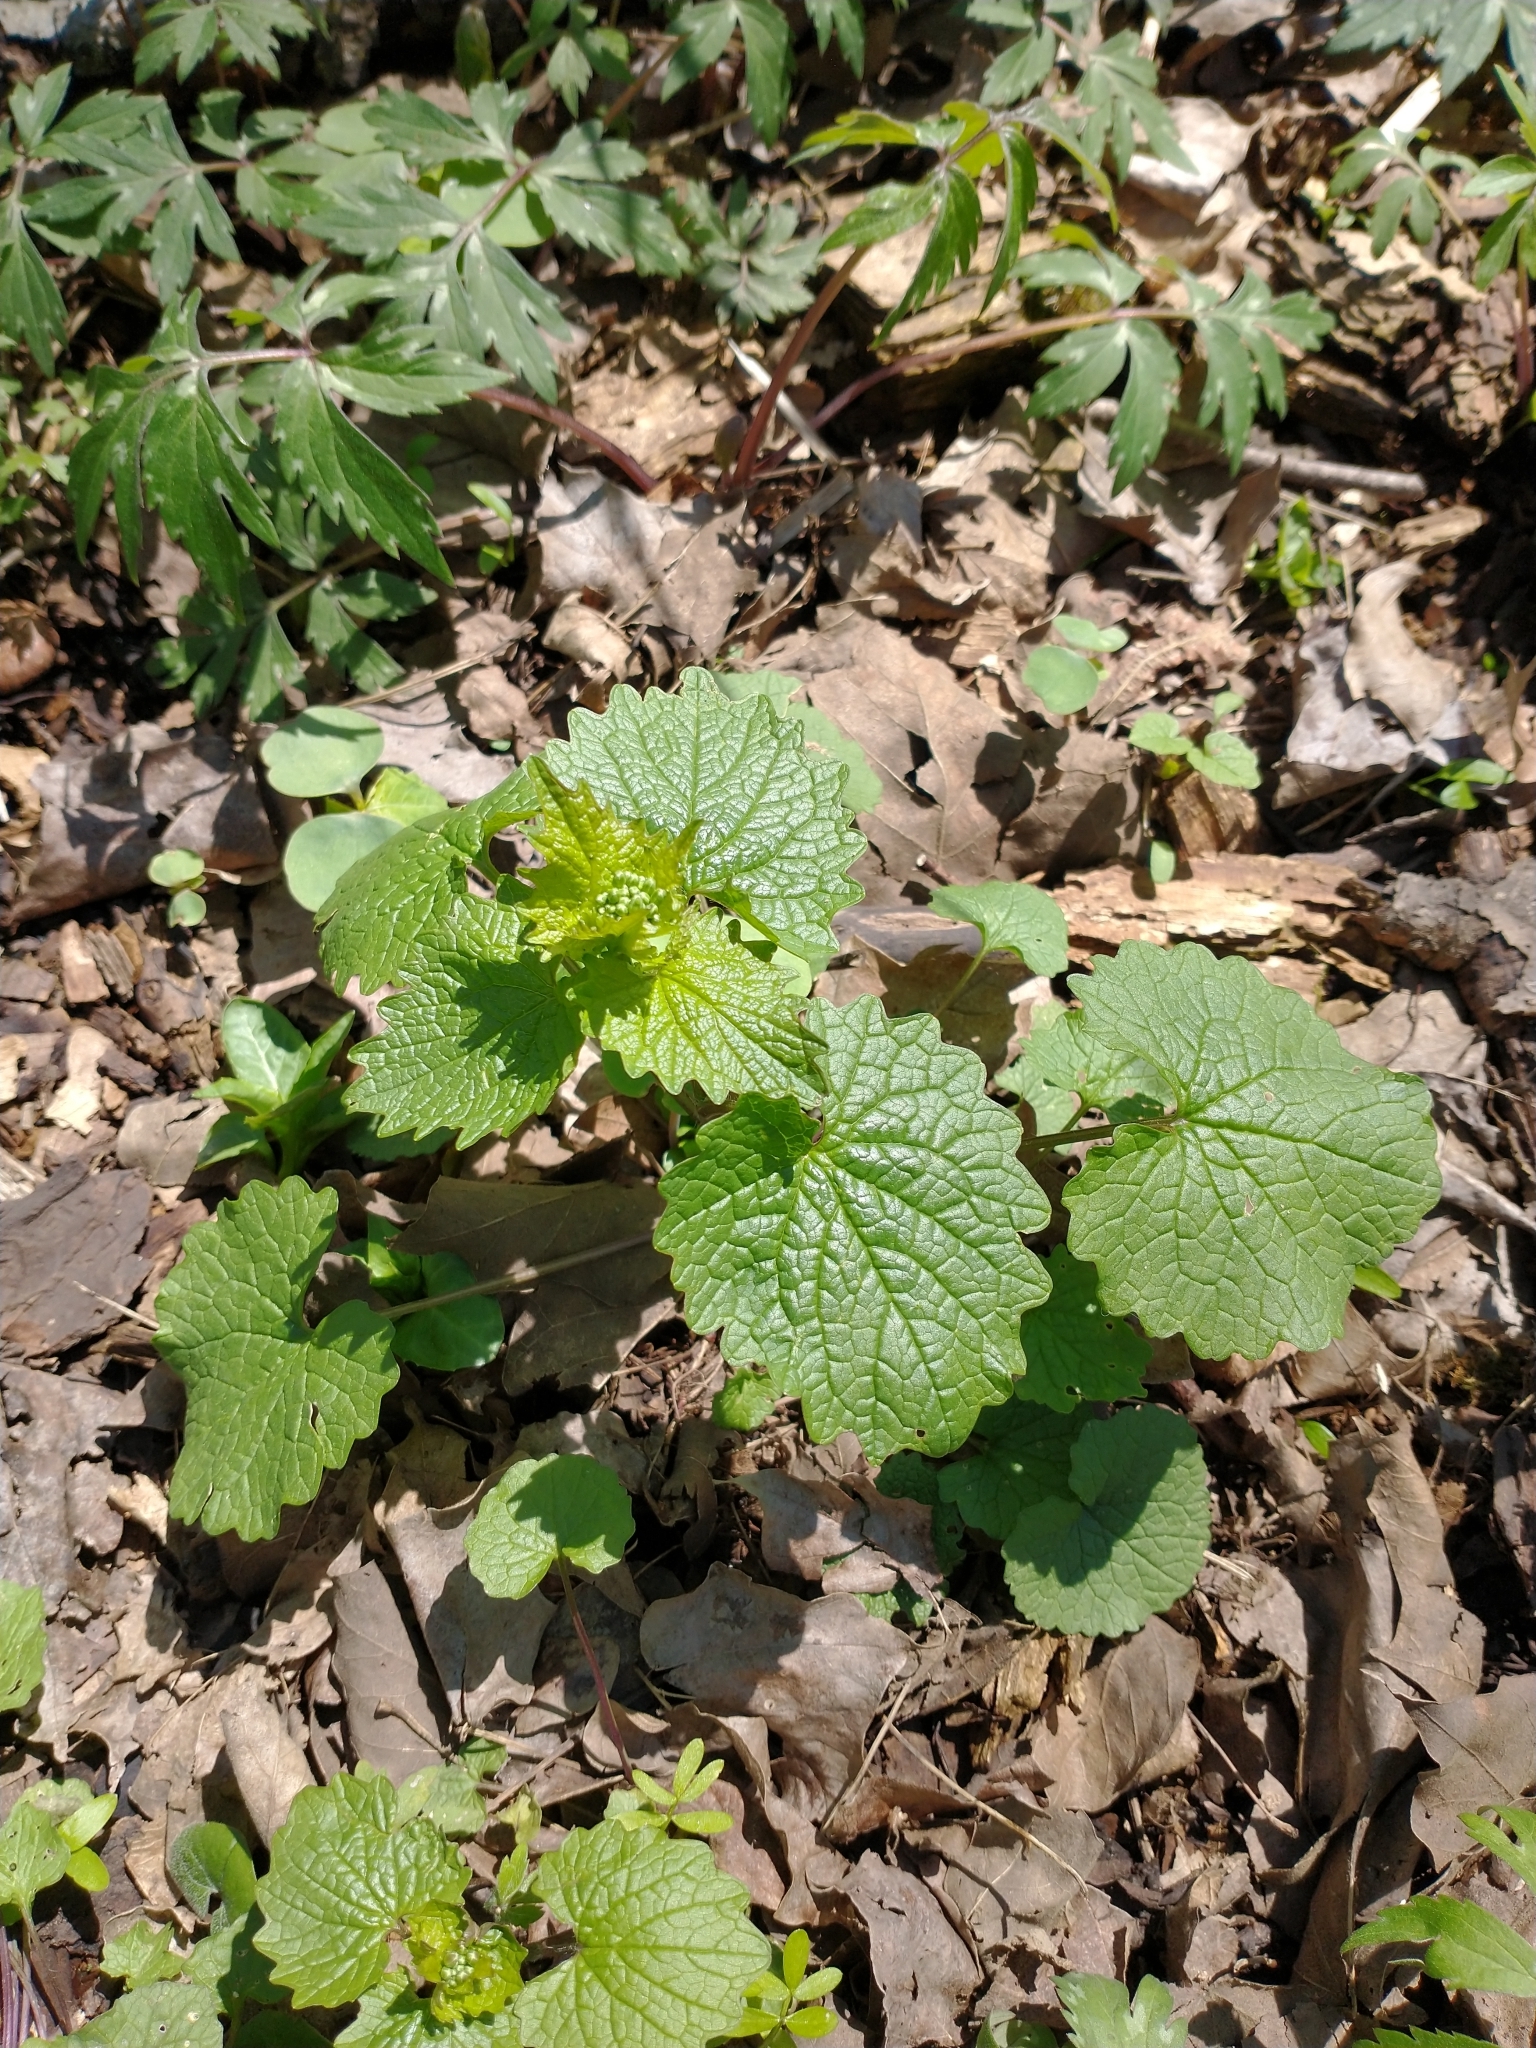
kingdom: Plantae
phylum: Tracheophyta
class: Magnoliopsida
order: Brassicales
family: Brassicaceae
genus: Alliaria
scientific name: Alliaria petiolata
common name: Garlic mustard
